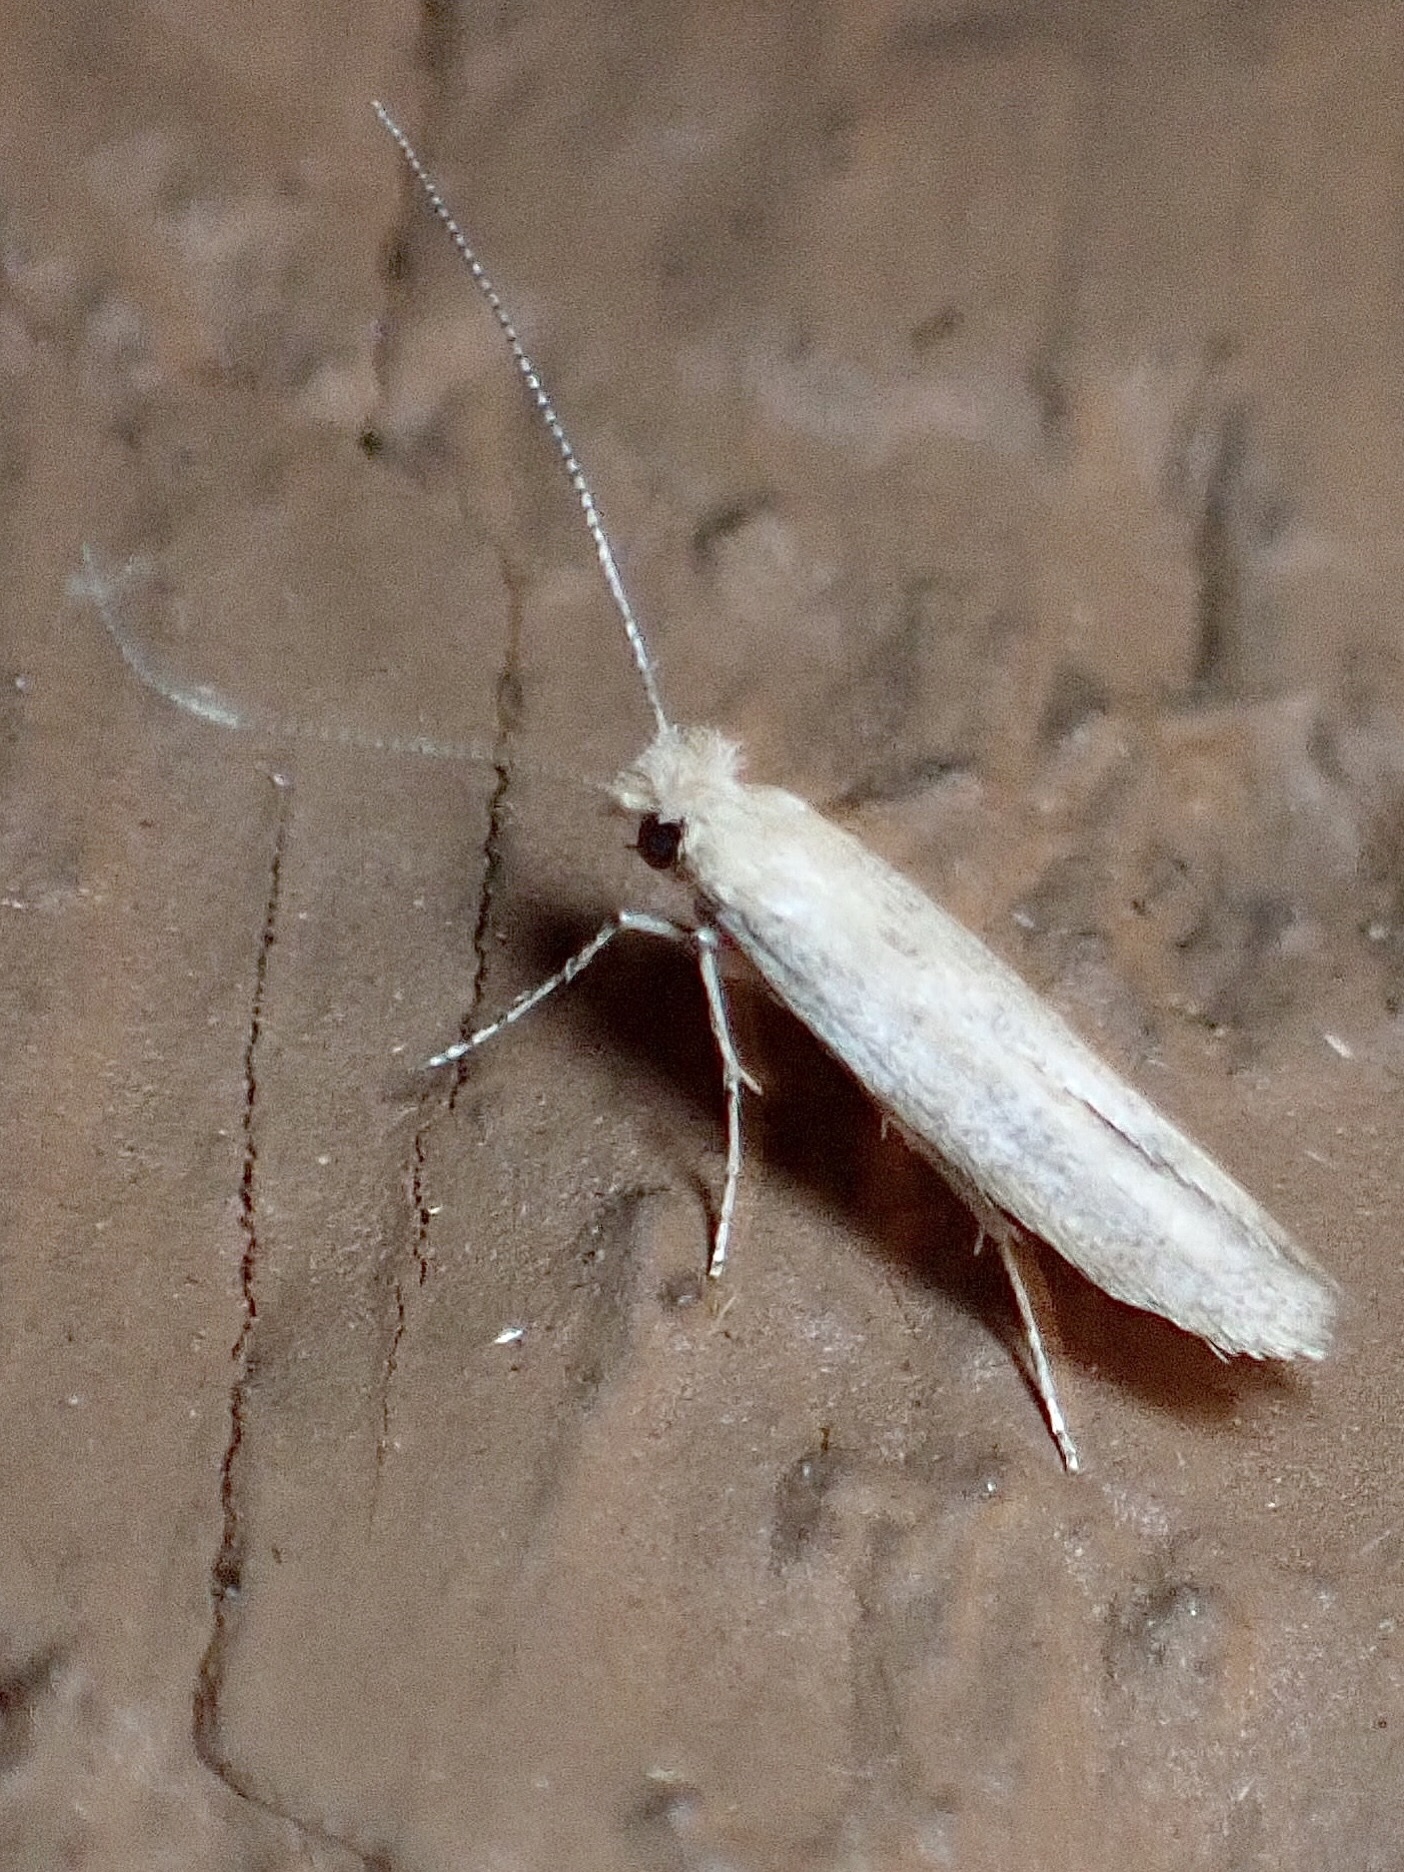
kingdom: Animalia
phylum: Arthropoda
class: Insecta
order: Lepidoptera
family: Bedelliidae
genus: Bedellia
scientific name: Bedellia somnulentella
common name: Morning-glory leafminer moth
